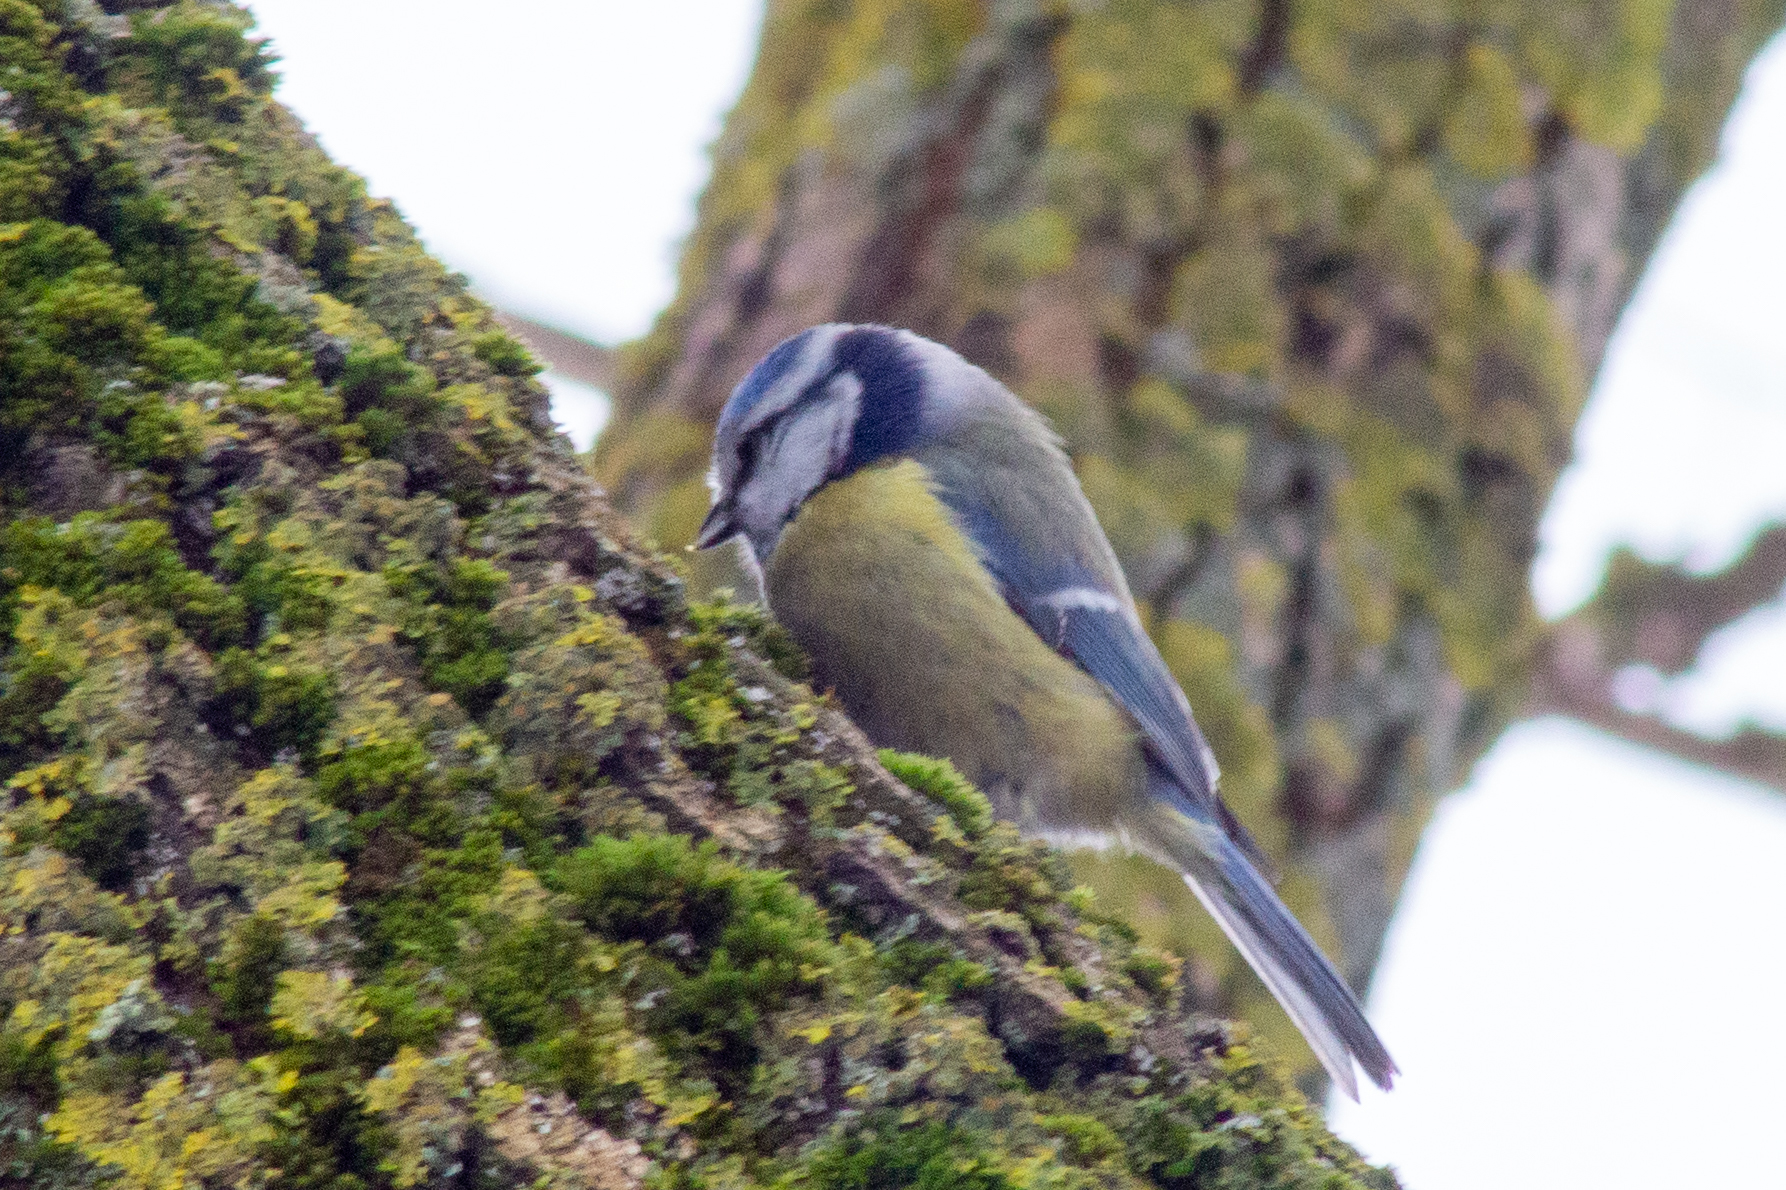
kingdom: Animalia
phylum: Chordata
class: Aves
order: Passeriformes
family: Paridae
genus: Cyanistes
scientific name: Cyanistes caeruleus
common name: Eurasian blue tit
